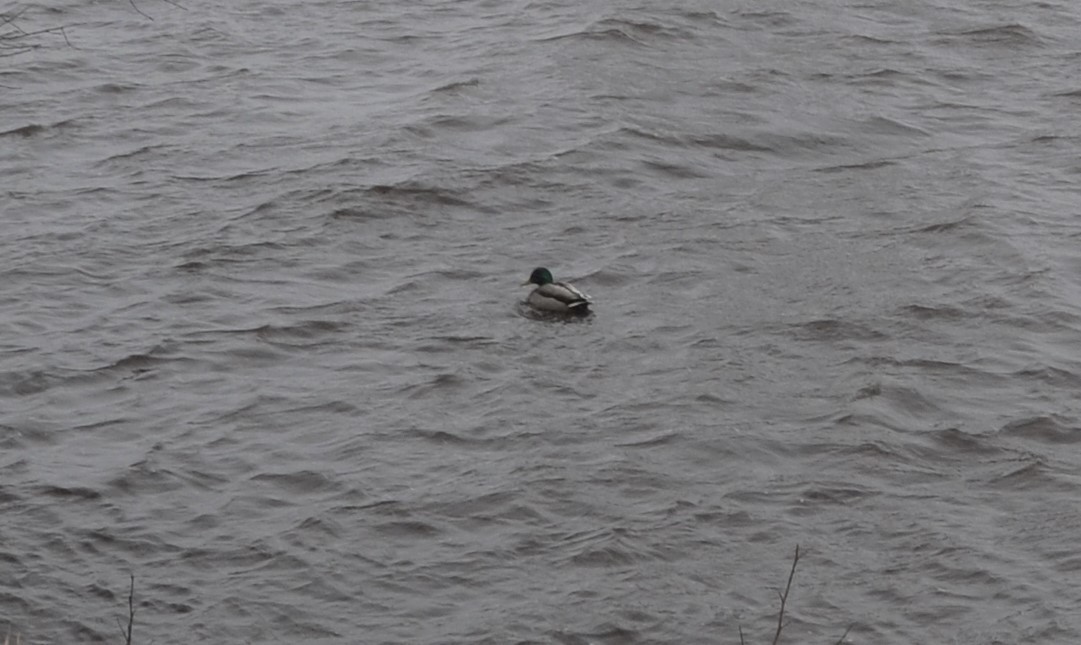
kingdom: Animalia
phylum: Chordata
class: Aves
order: Anseriformes
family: Anatidae
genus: Anas
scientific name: Anas platyrhynchos
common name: Mallard
